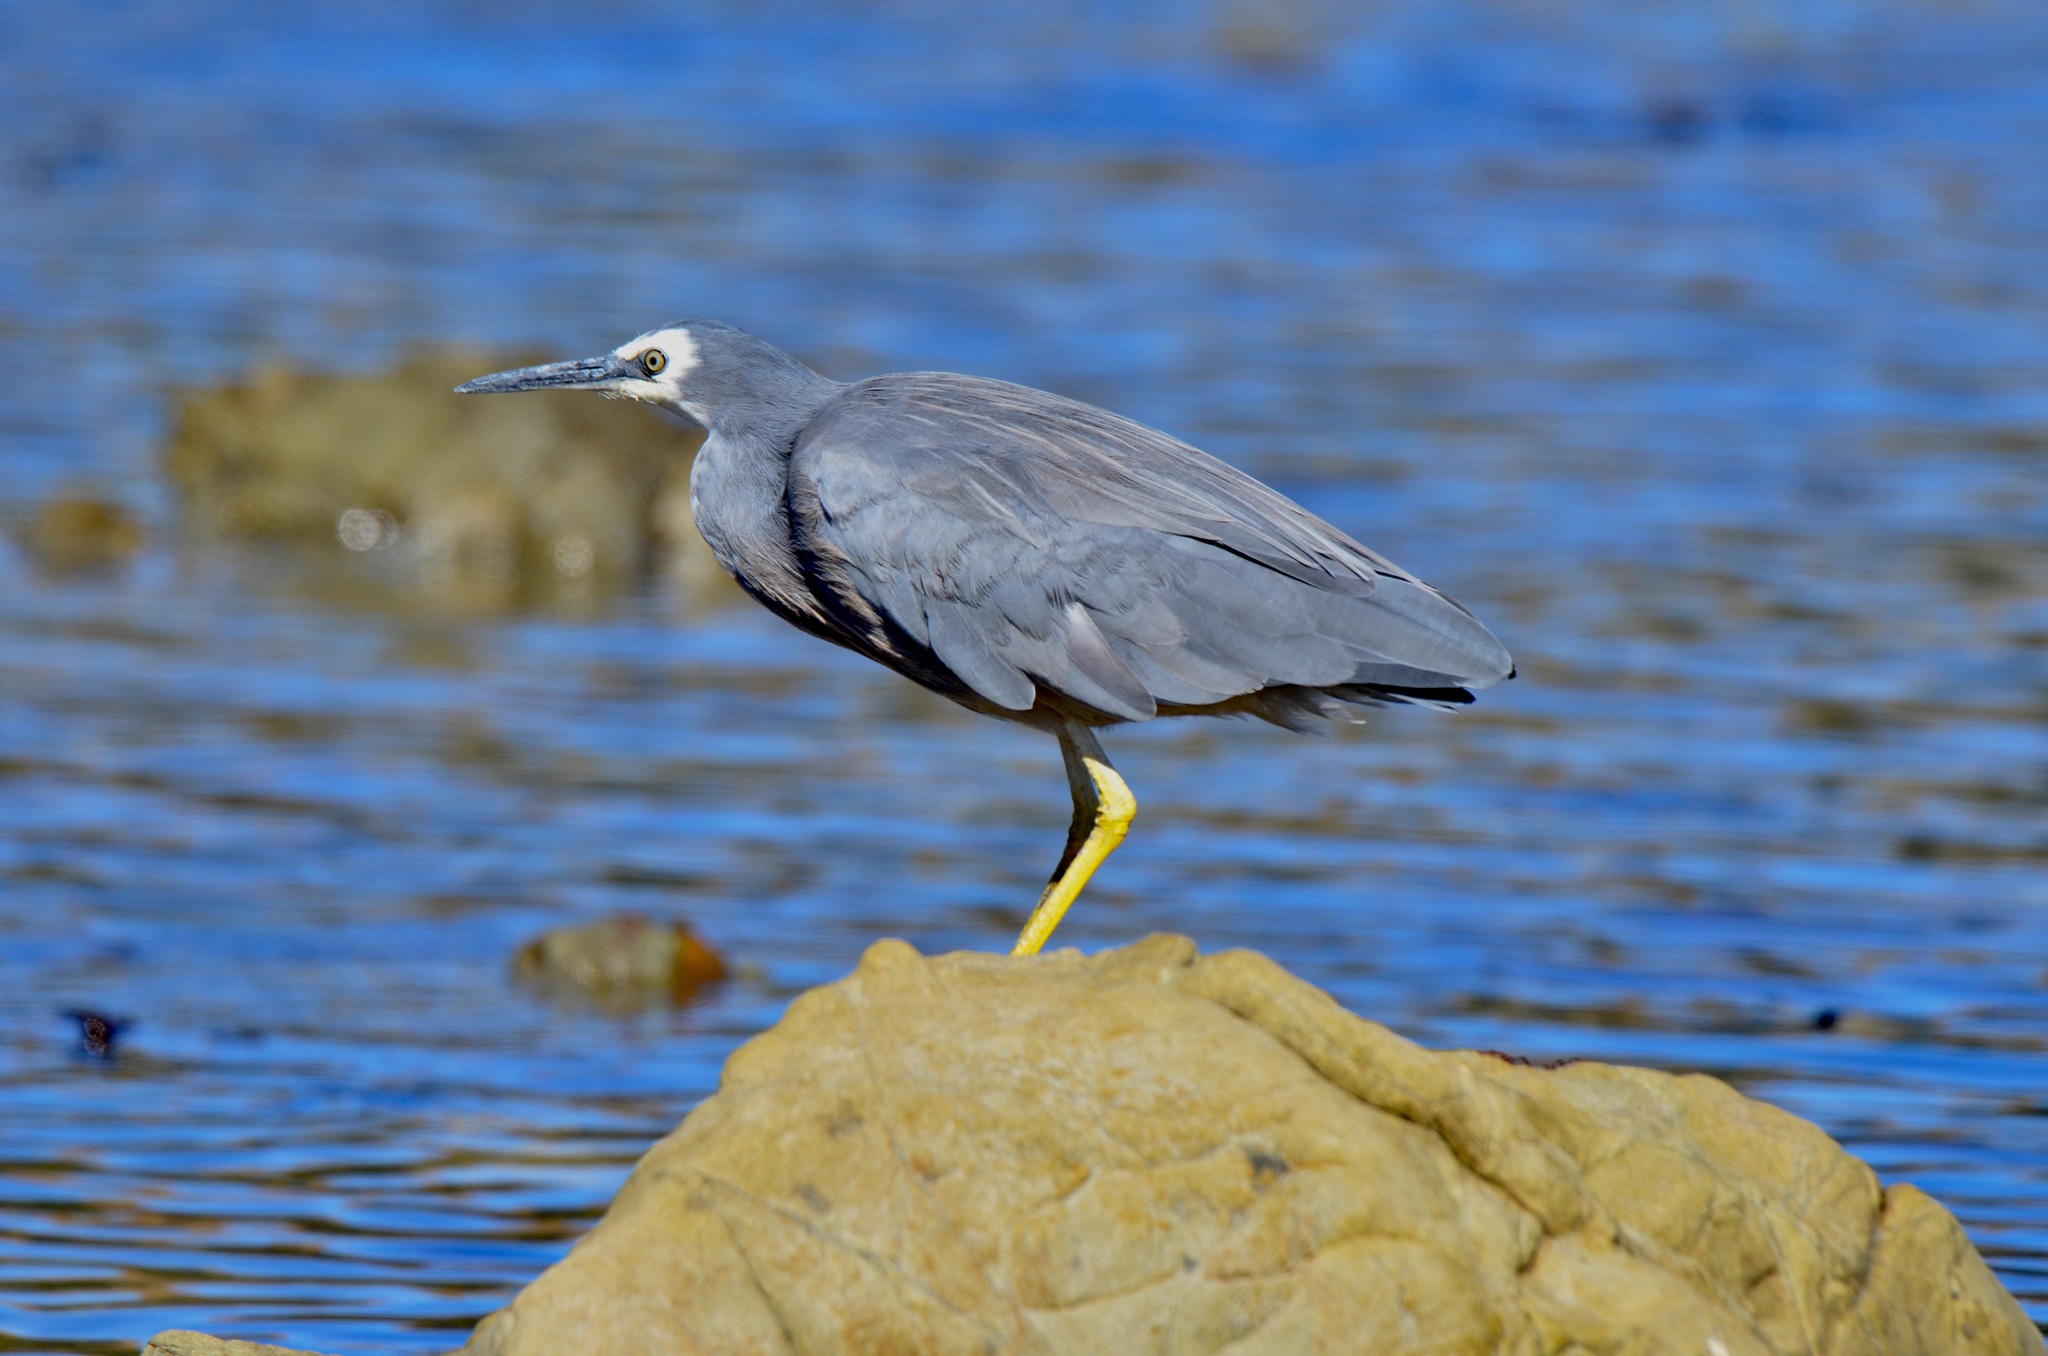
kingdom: Animalia
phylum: Chordata
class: Aves
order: Pelecaniformes
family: Ardeidae
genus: Egretta
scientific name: Egretta novaehollandiae
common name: White-faced heron
